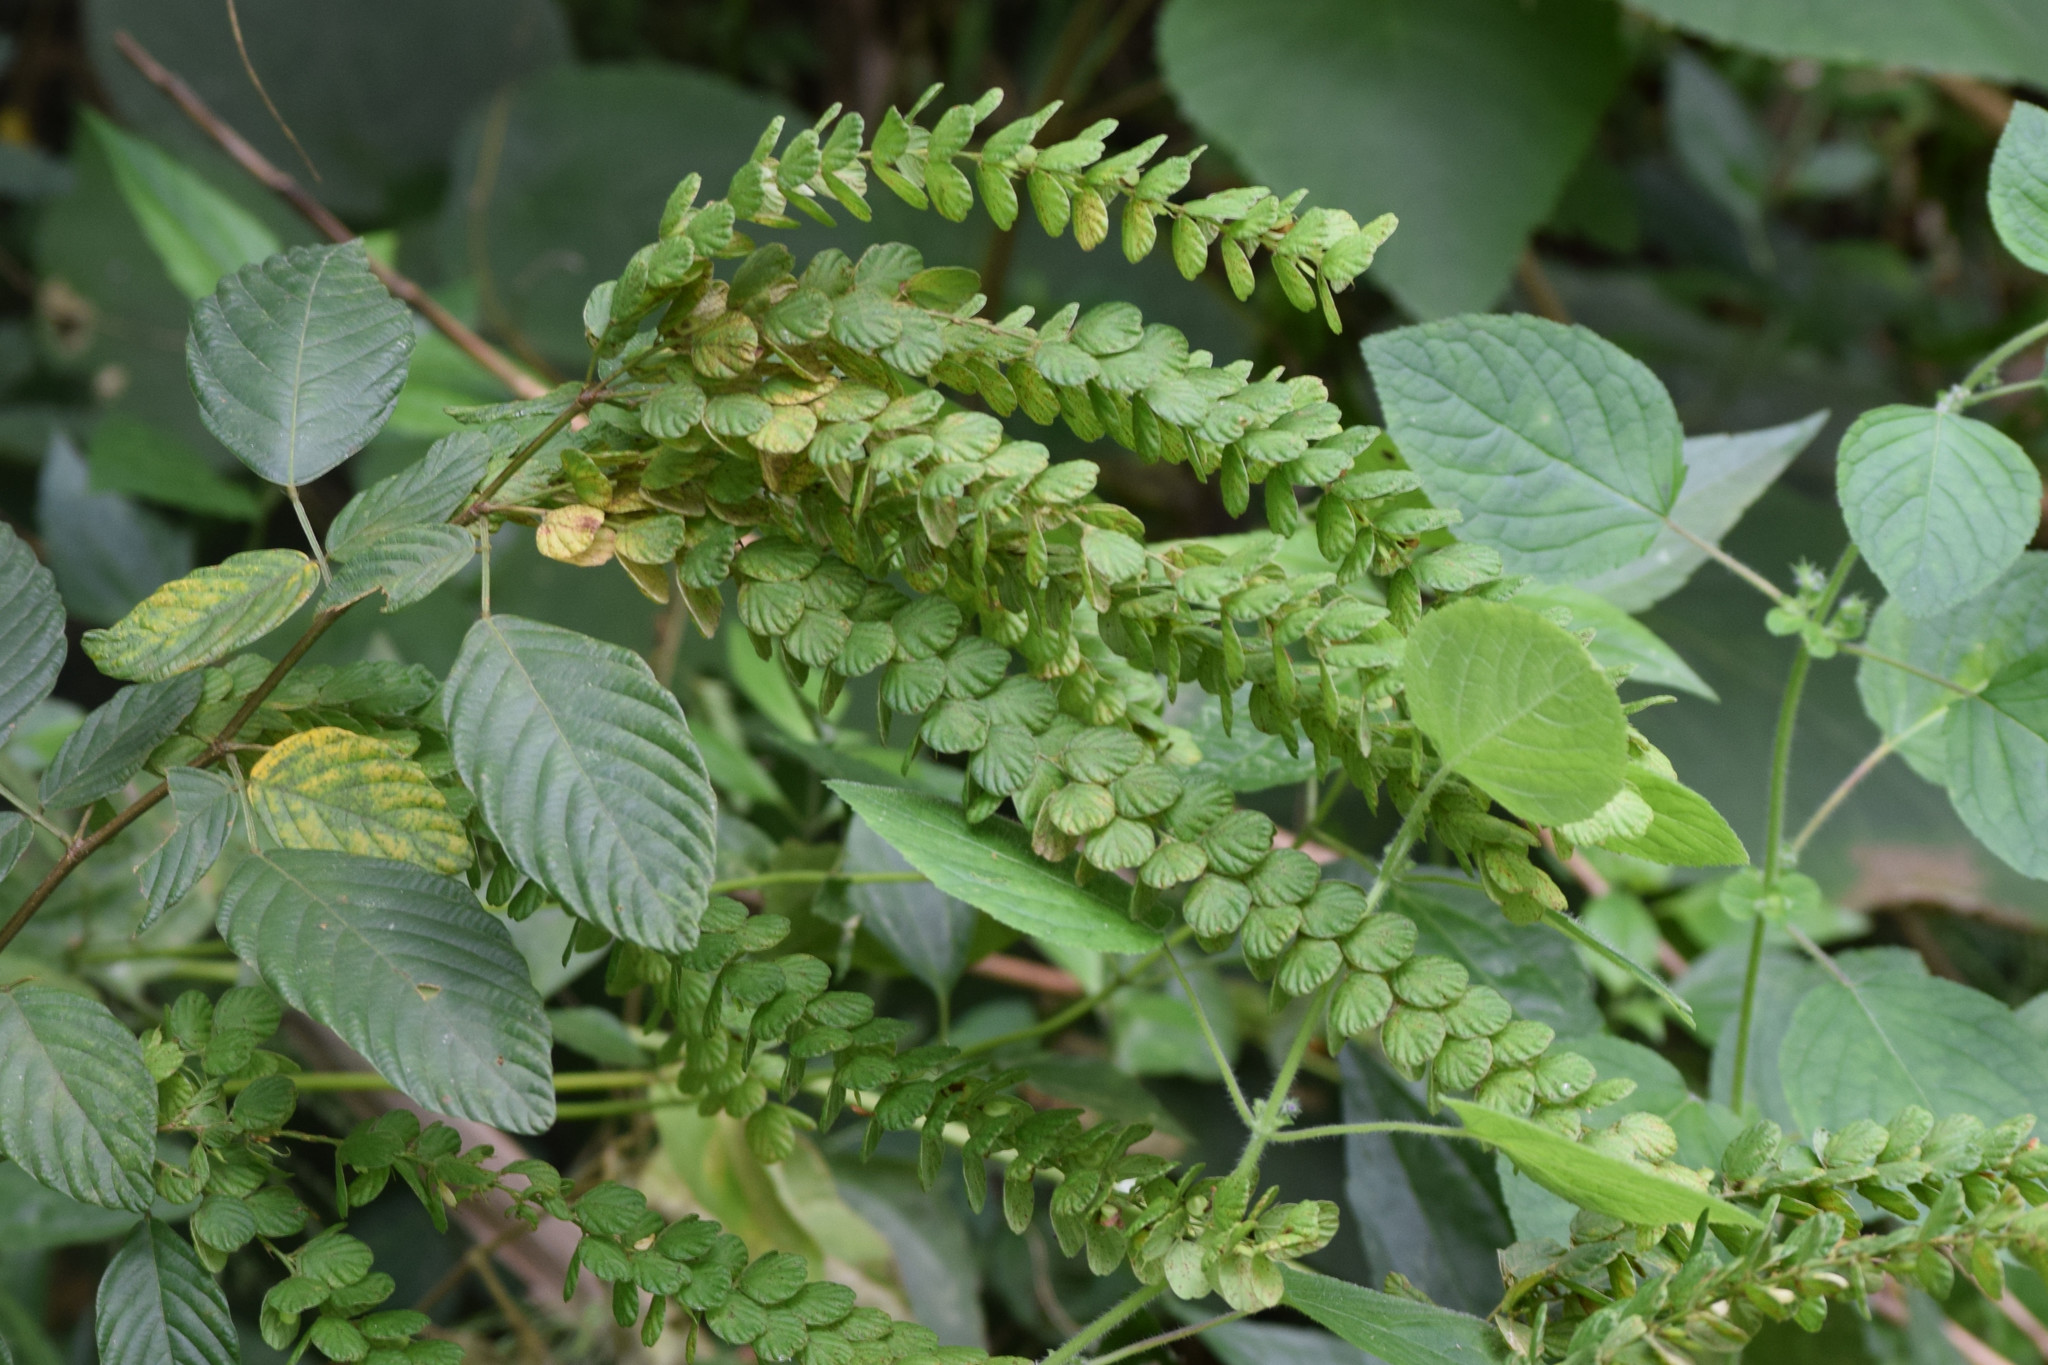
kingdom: Plantae
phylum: Tracheophyta
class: Magnoliopsida
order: Fabales
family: Fabaceae
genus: Phyllodium
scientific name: Phyllodium pulchellum
